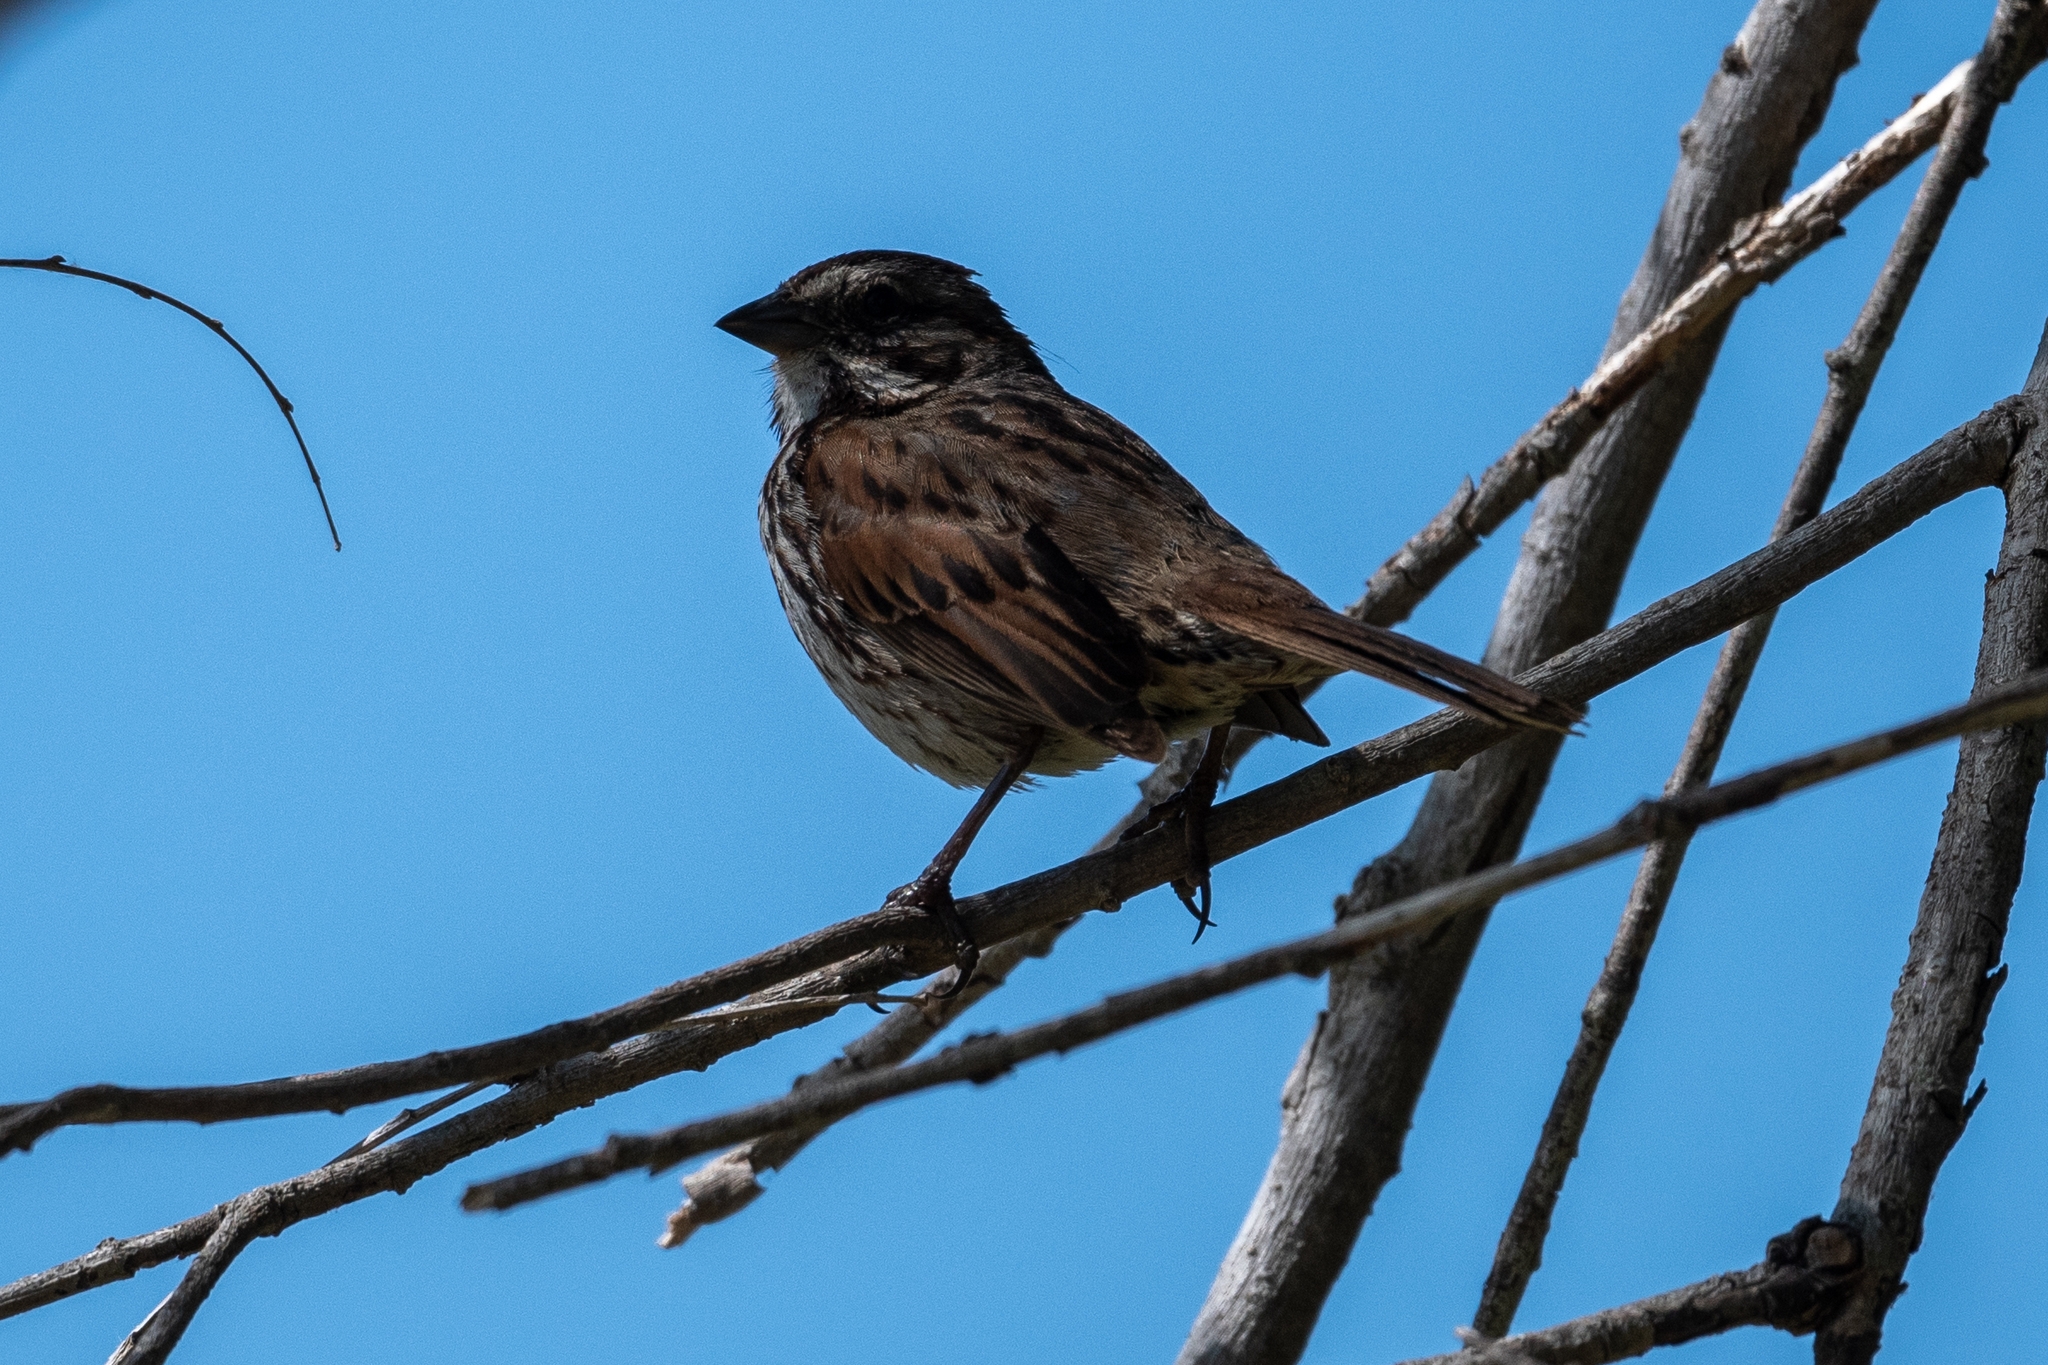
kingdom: Animalia
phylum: Chordata
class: Aves
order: Passeriformes
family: Passerellidae
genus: Melospiza
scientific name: Melospiza melodia
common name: Song sparrow
